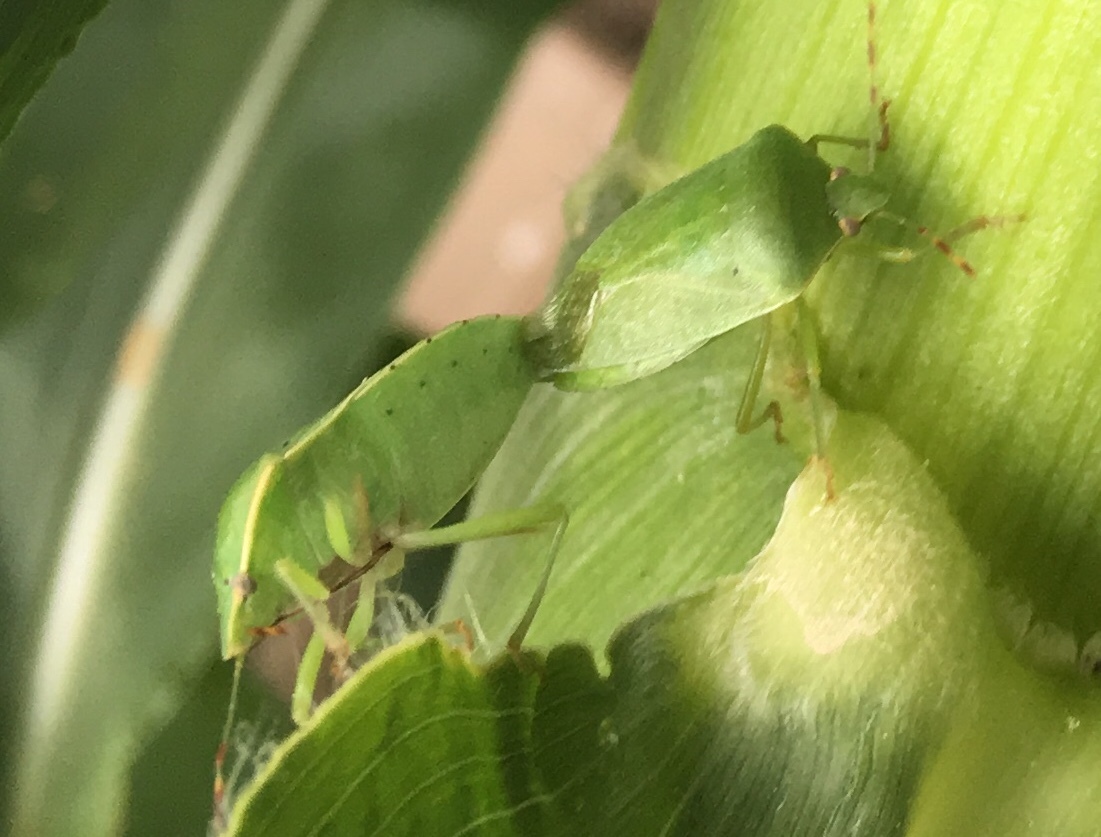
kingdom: Animalia
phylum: Arthropoda
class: Insecta
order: Hemiptera
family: Pentatomidae
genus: Nezara
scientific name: Nezara viridula
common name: Southern green stink bug
